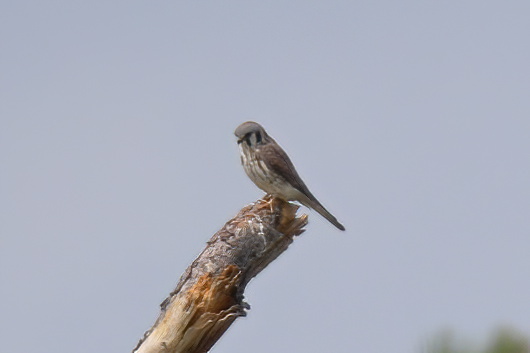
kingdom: Animalia
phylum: Chordata
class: Aves
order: Falconiformes
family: Falconidae
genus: Falco
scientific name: Falco sparverius
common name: American kestrel
